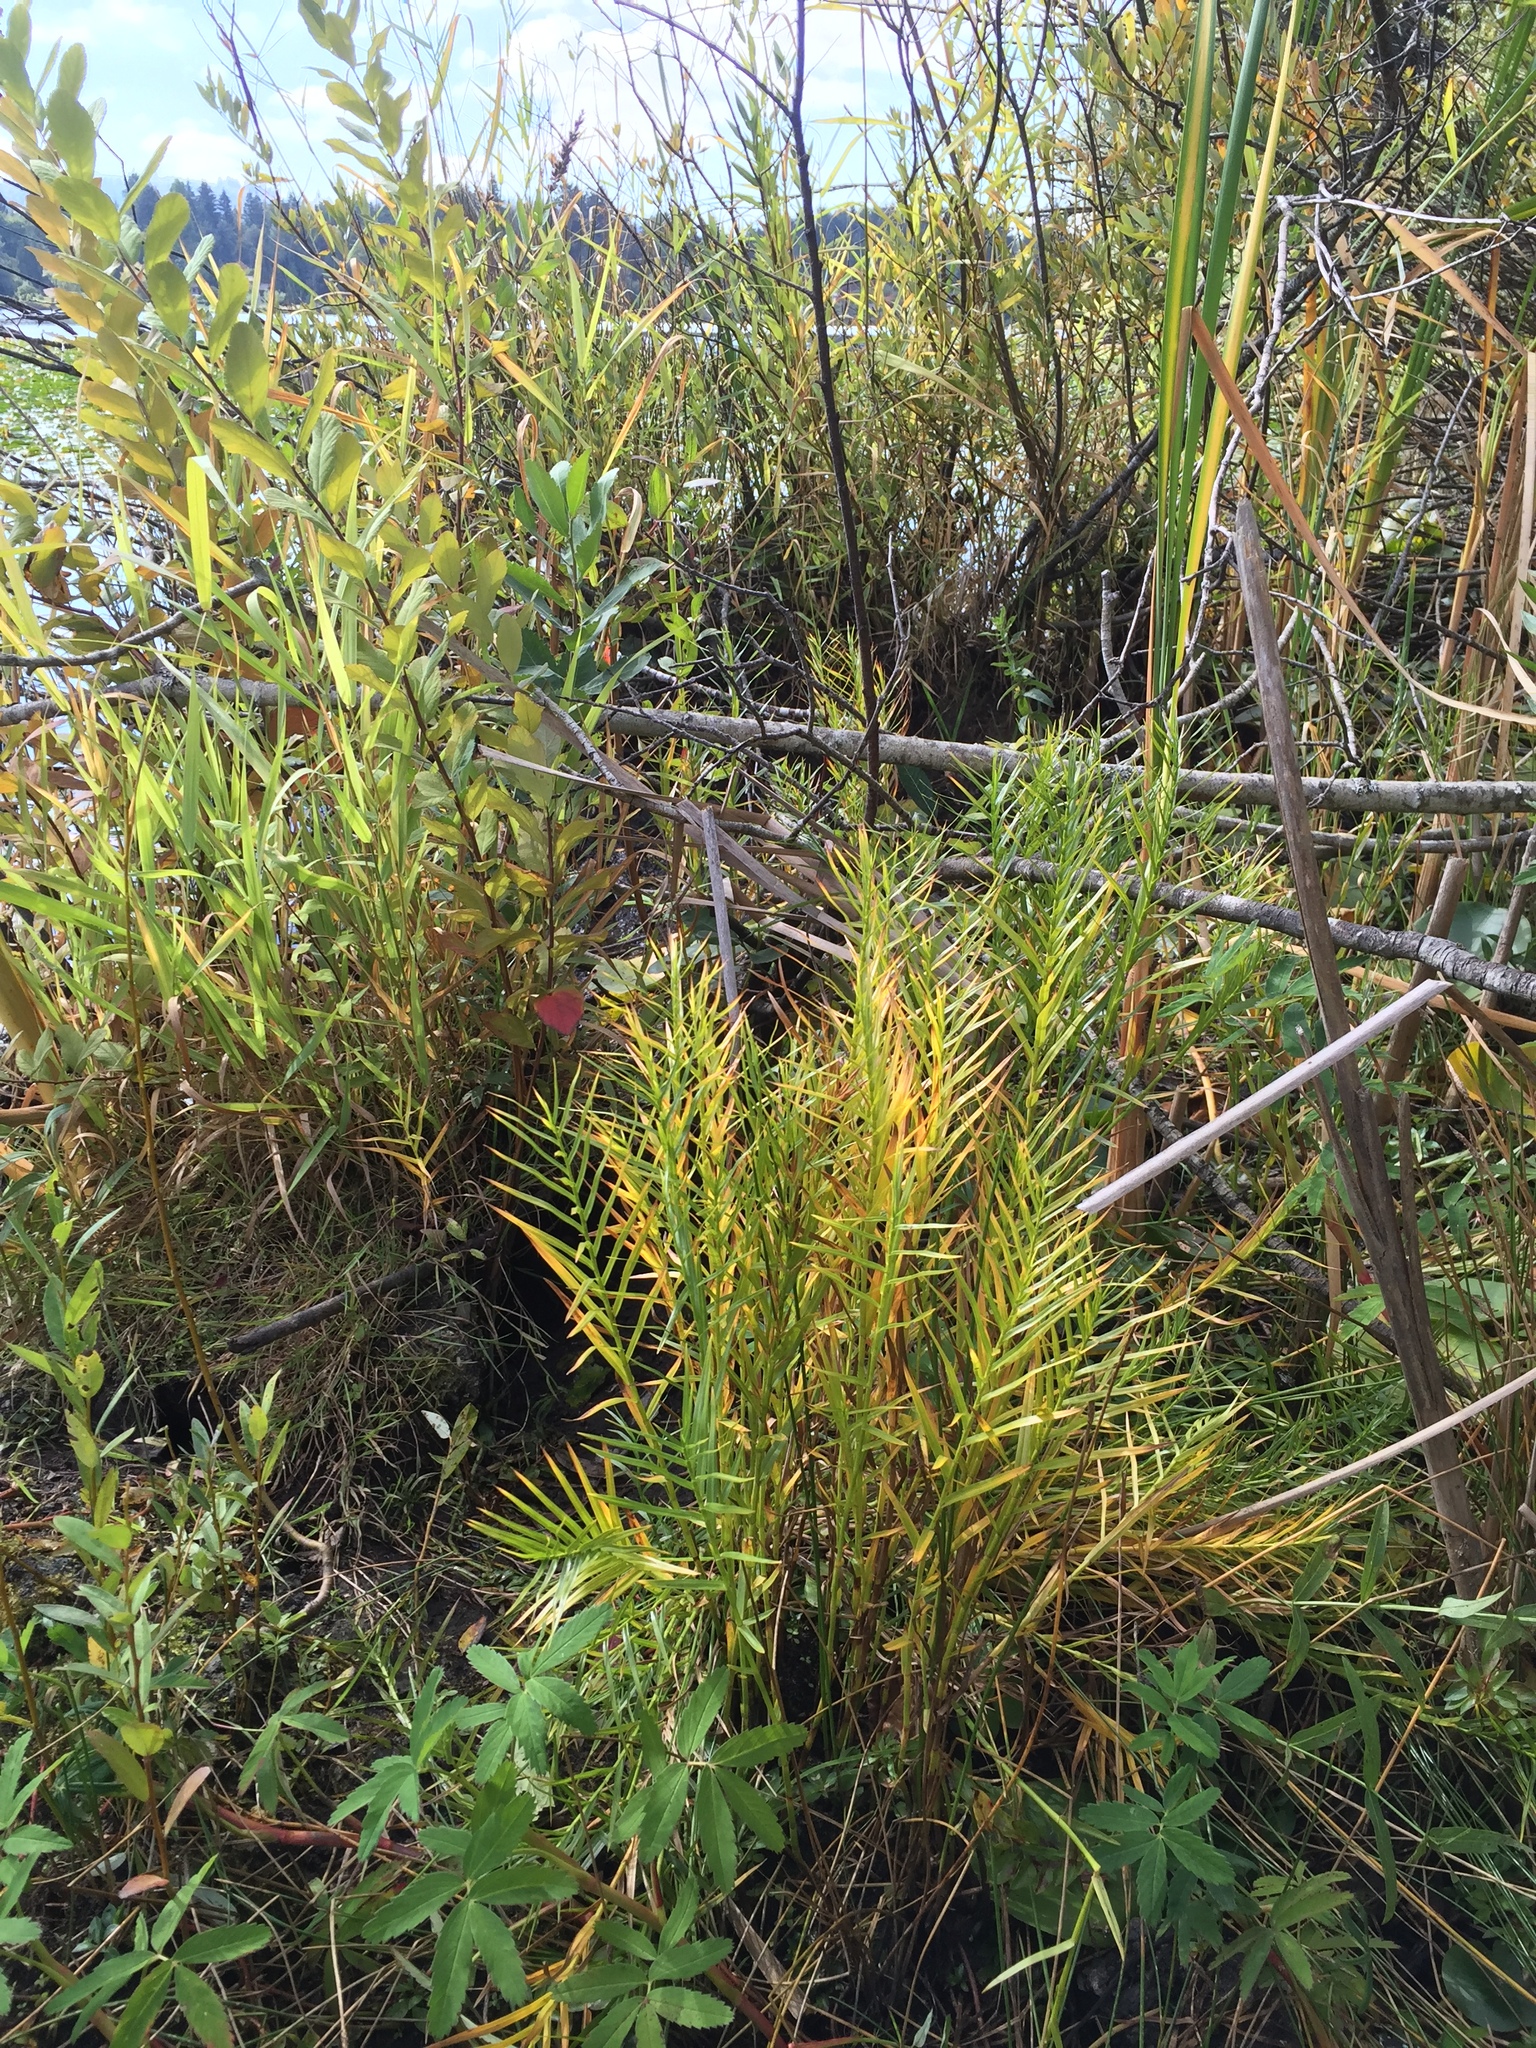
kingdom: Plantae
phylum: Tracheophyta
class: Liliopsida
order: Poales
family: Cyperaceae
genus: Dulichium
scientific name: Dulichium arundinaceum
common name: Three-way sedge
